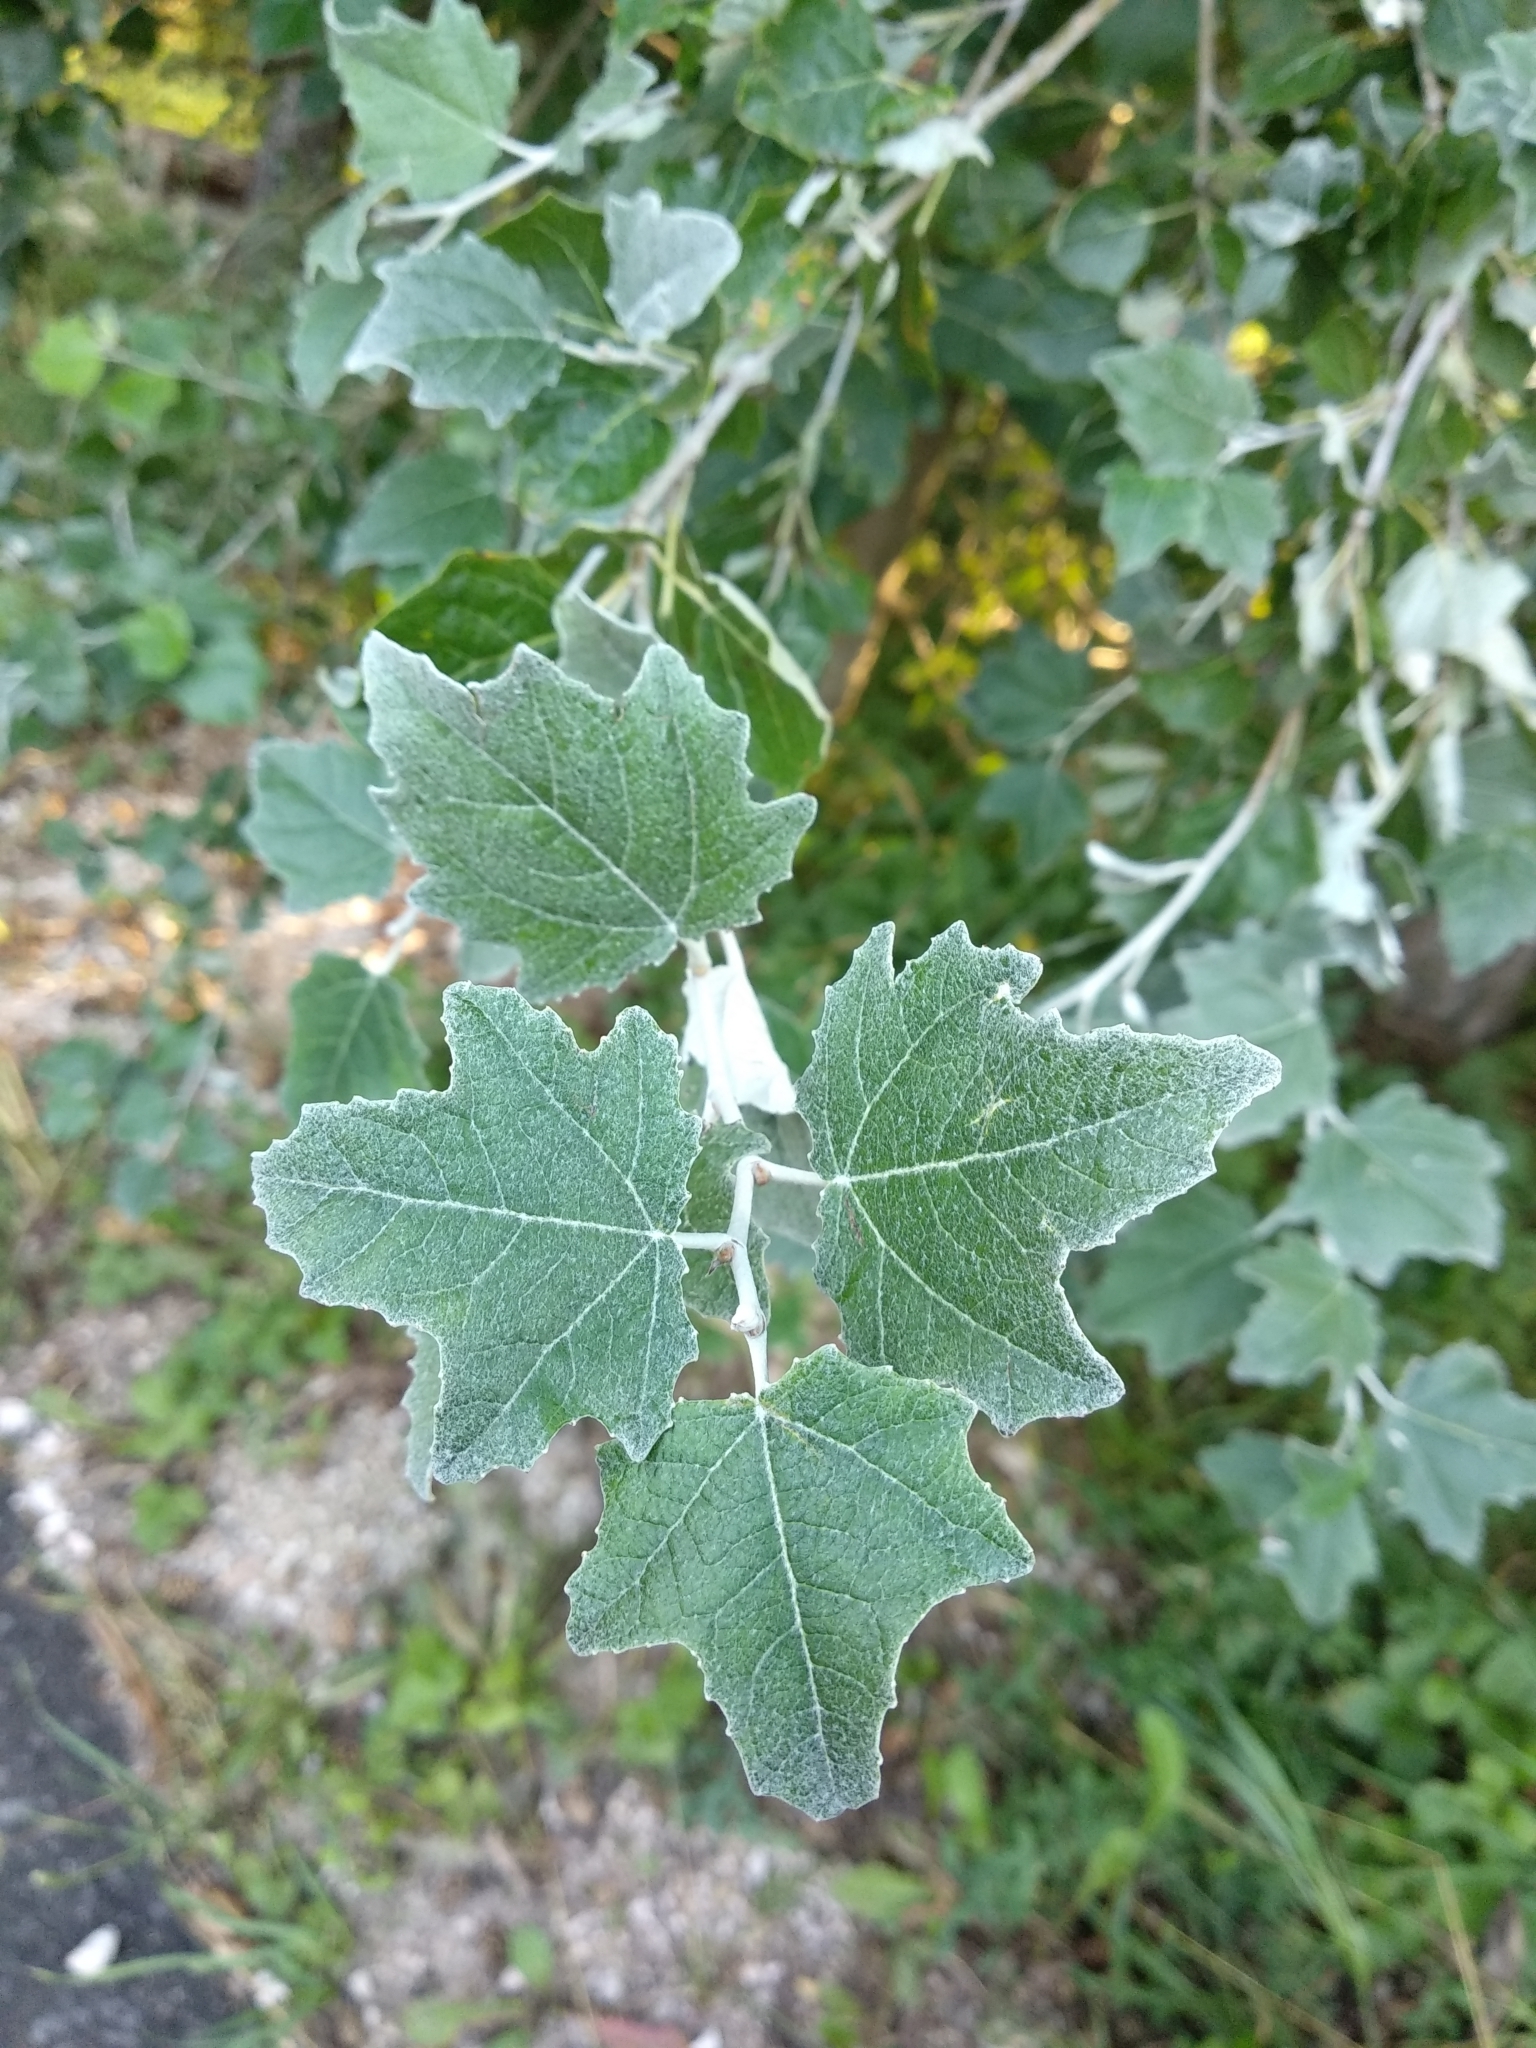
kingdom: Plantae
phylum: Tracheophyta
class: Magnoliopsida
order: Malpighiales
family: Salicaceae
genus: Populus
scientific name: Populus alba
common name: White poplar
